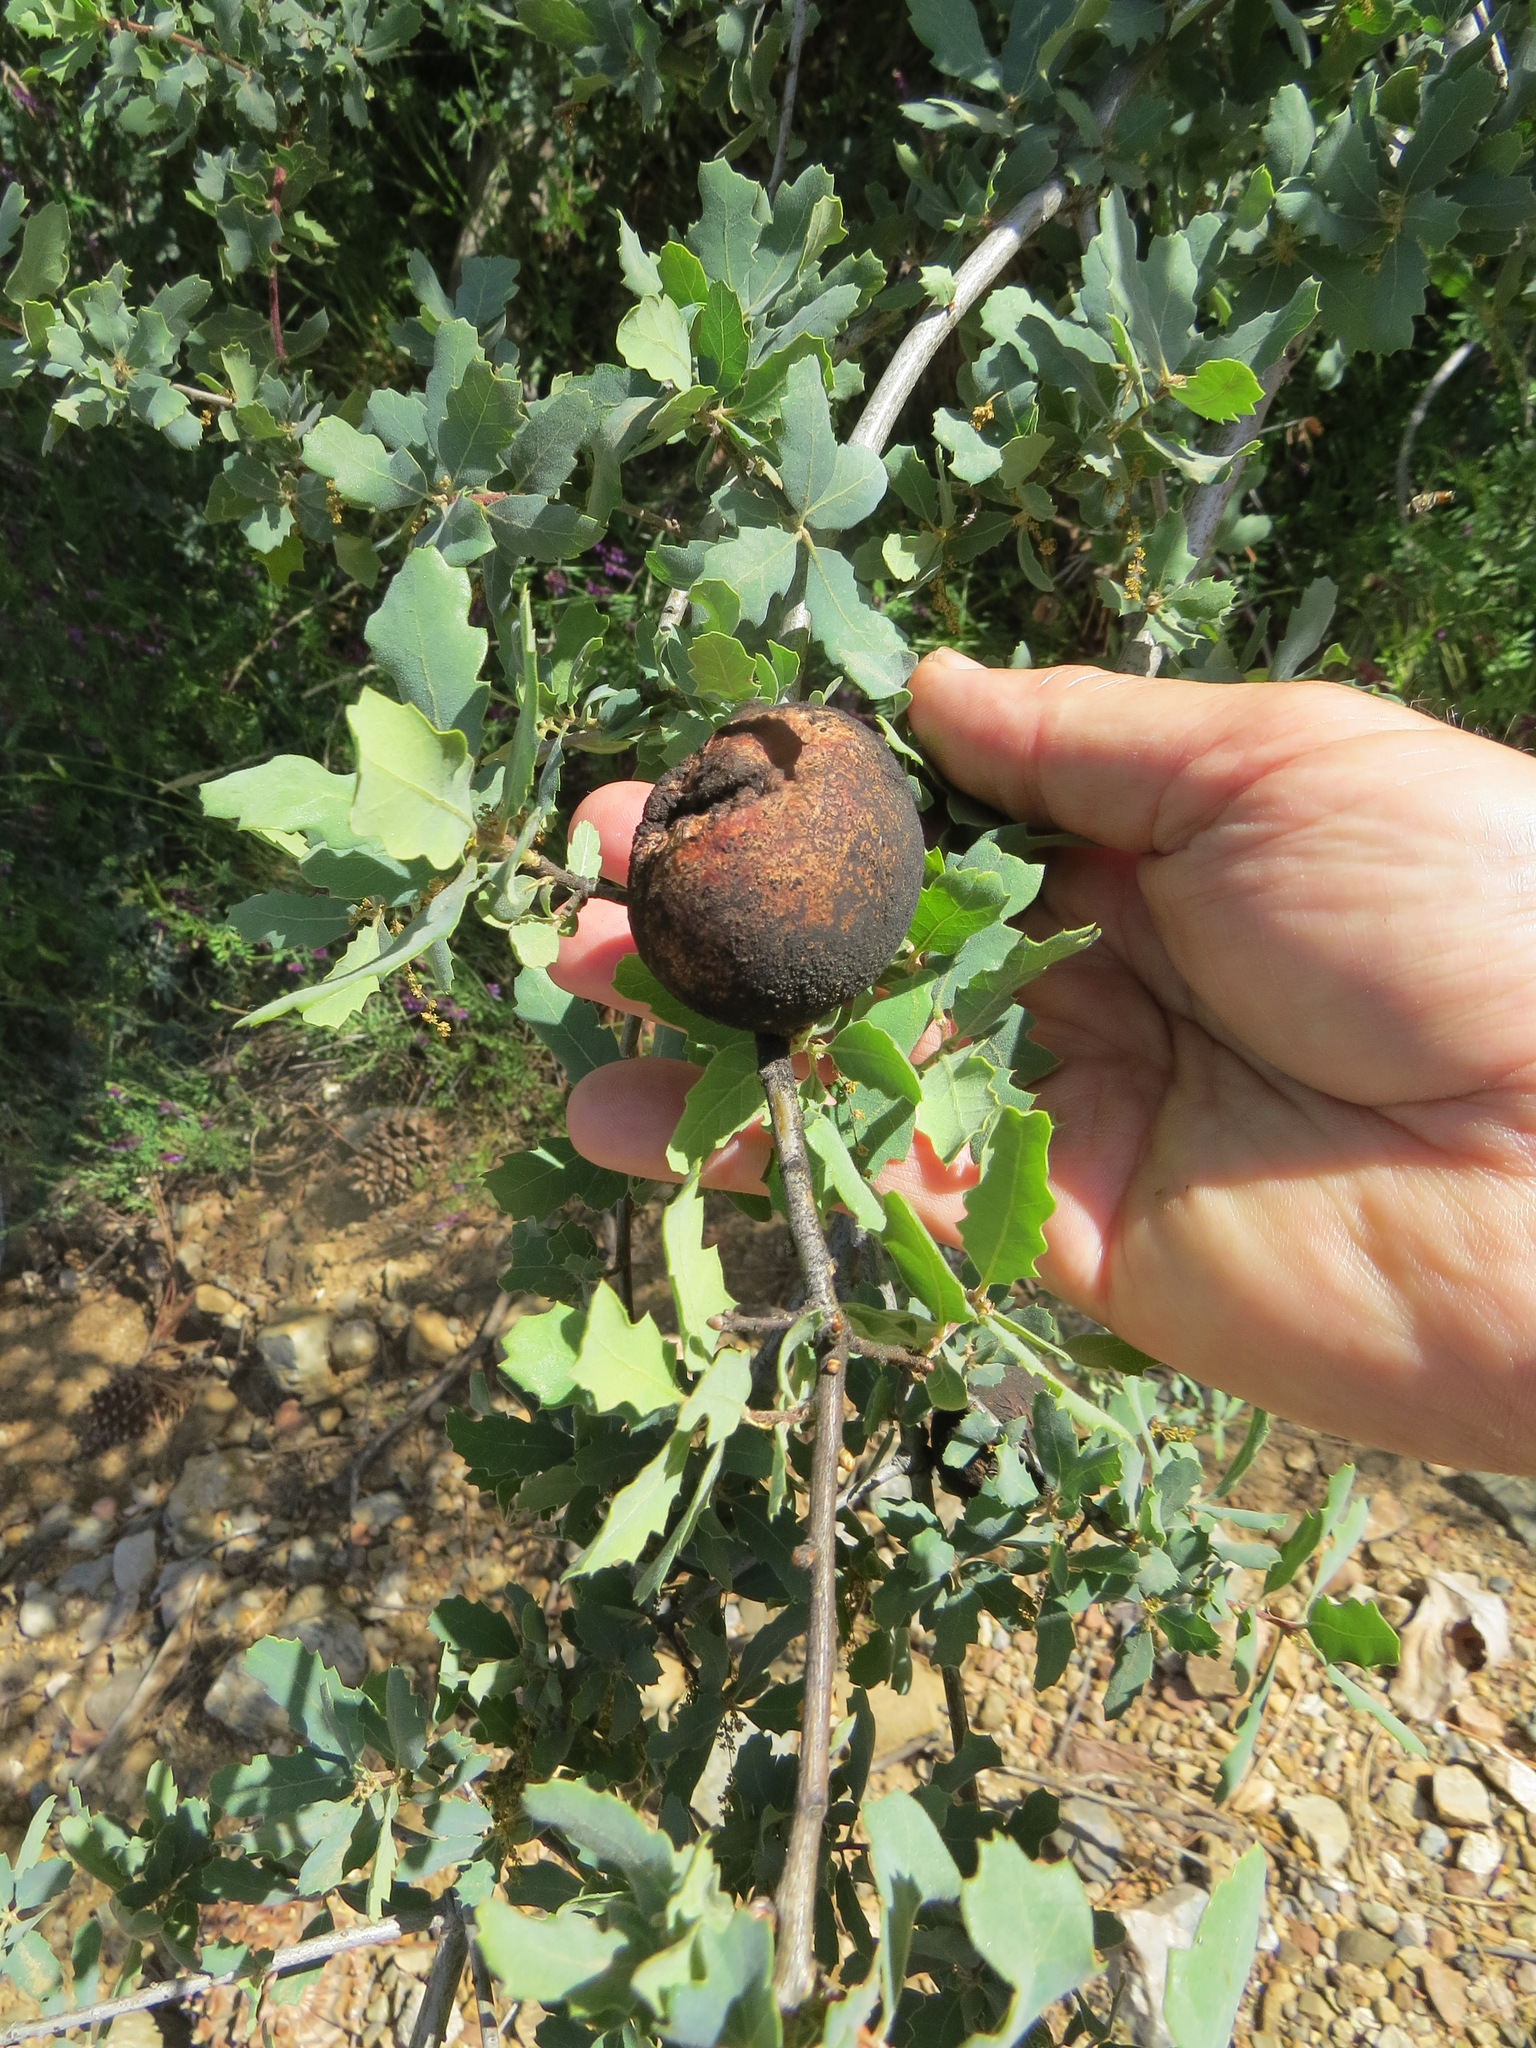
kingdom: Animalia
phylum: Arthropoda
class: Insecta
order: Hymenoptera
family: Cynipidae
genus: Andricus
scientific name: Andricus quercuscalifornicus
